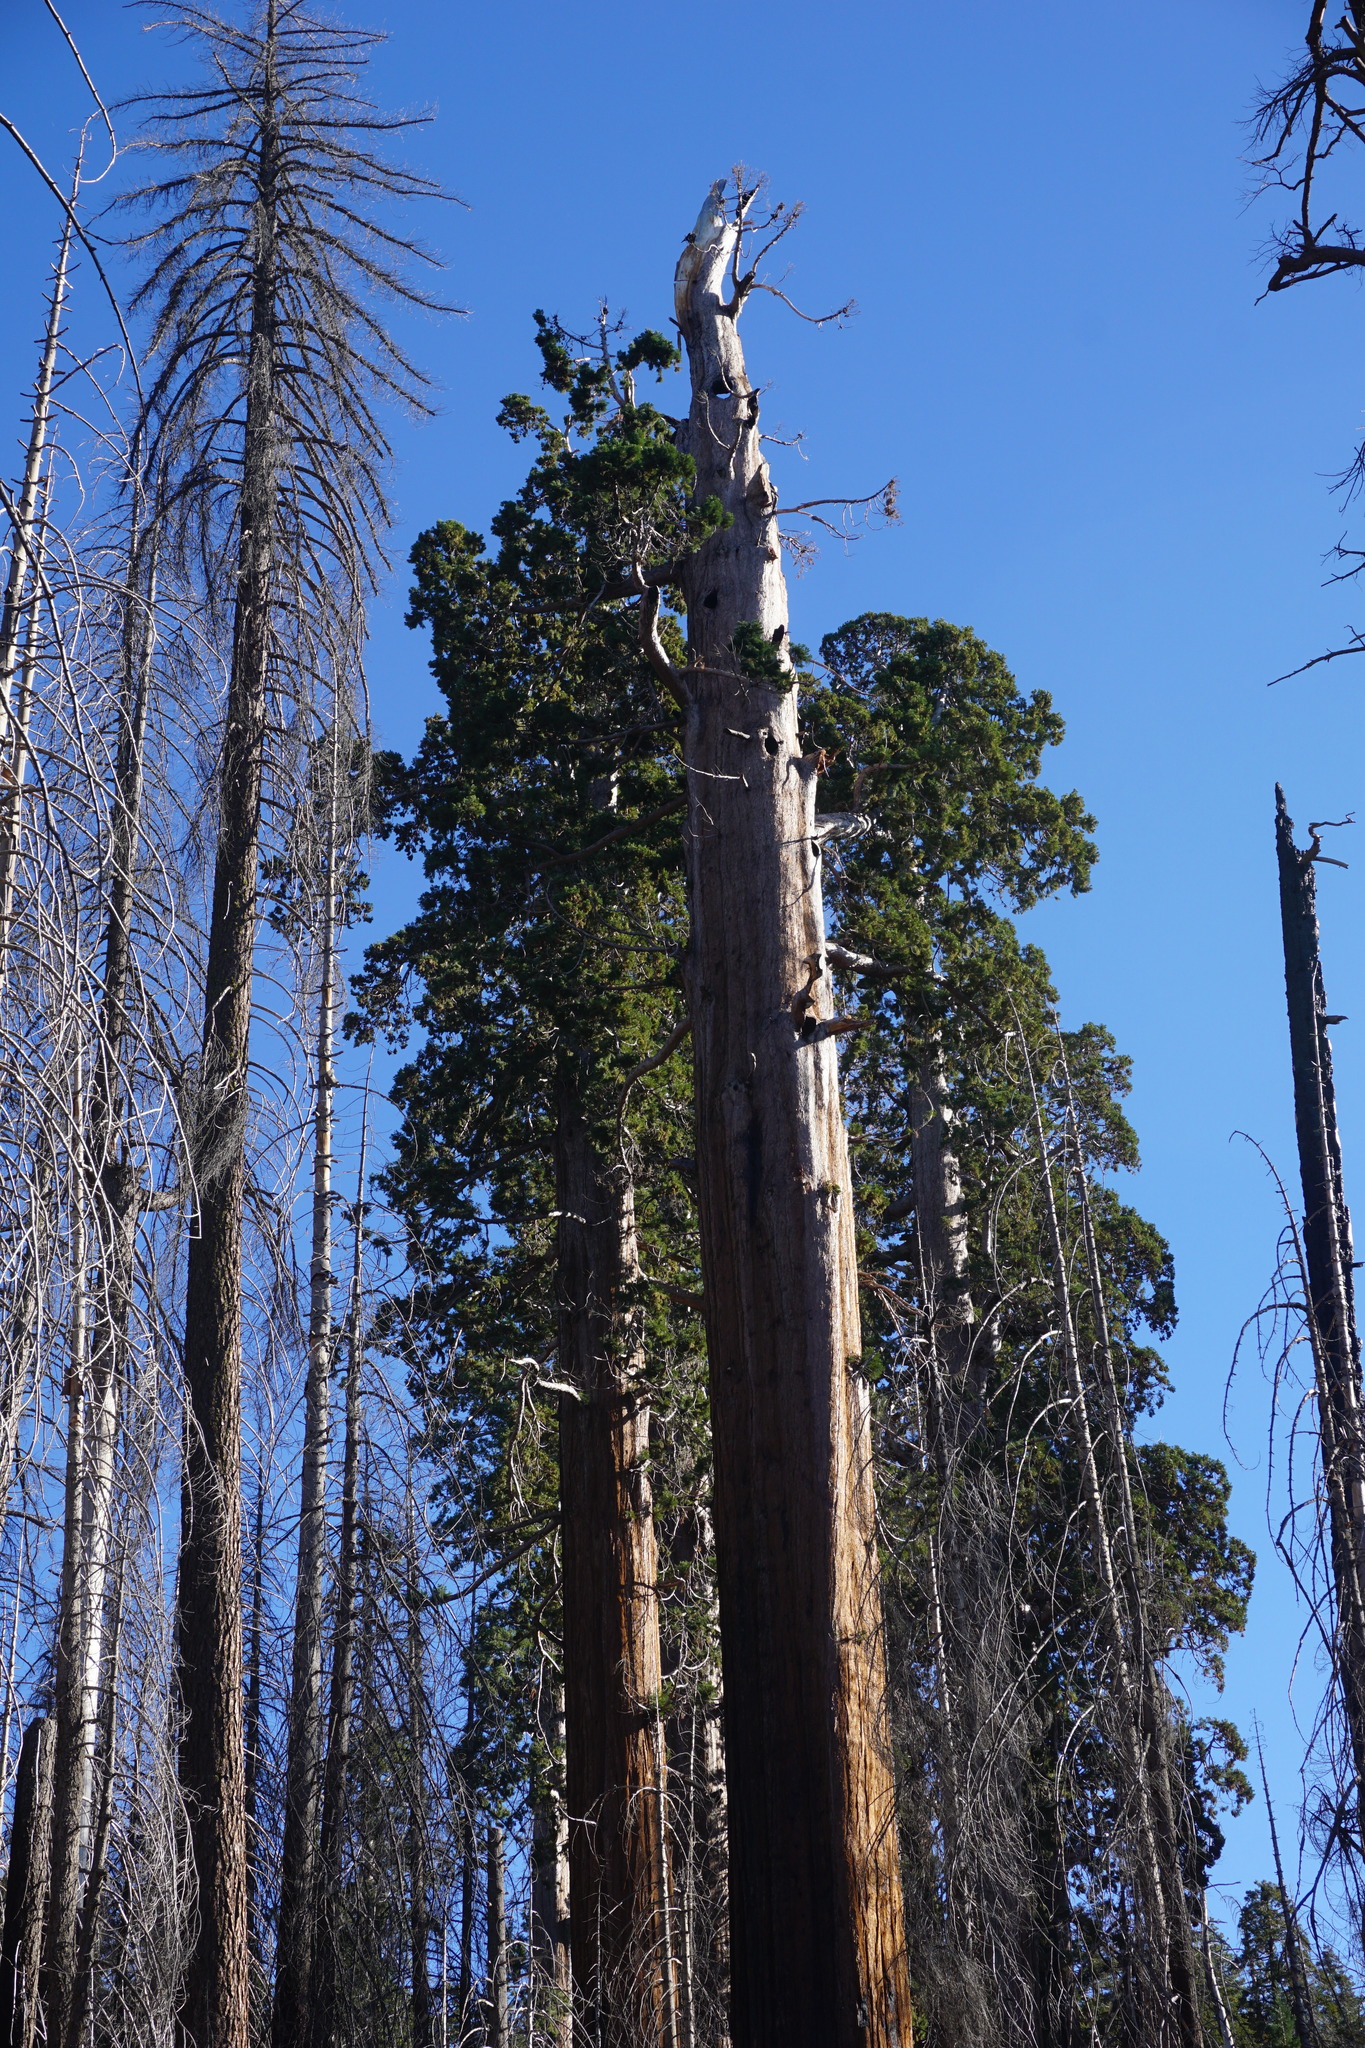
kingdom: Plantae
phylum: Tracheophyta
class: Pinopsida
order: Pinales
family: Cupressaceae
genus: Sequoiadendron
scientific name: Sequoiadendron giganteum
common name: Wellingtonia
